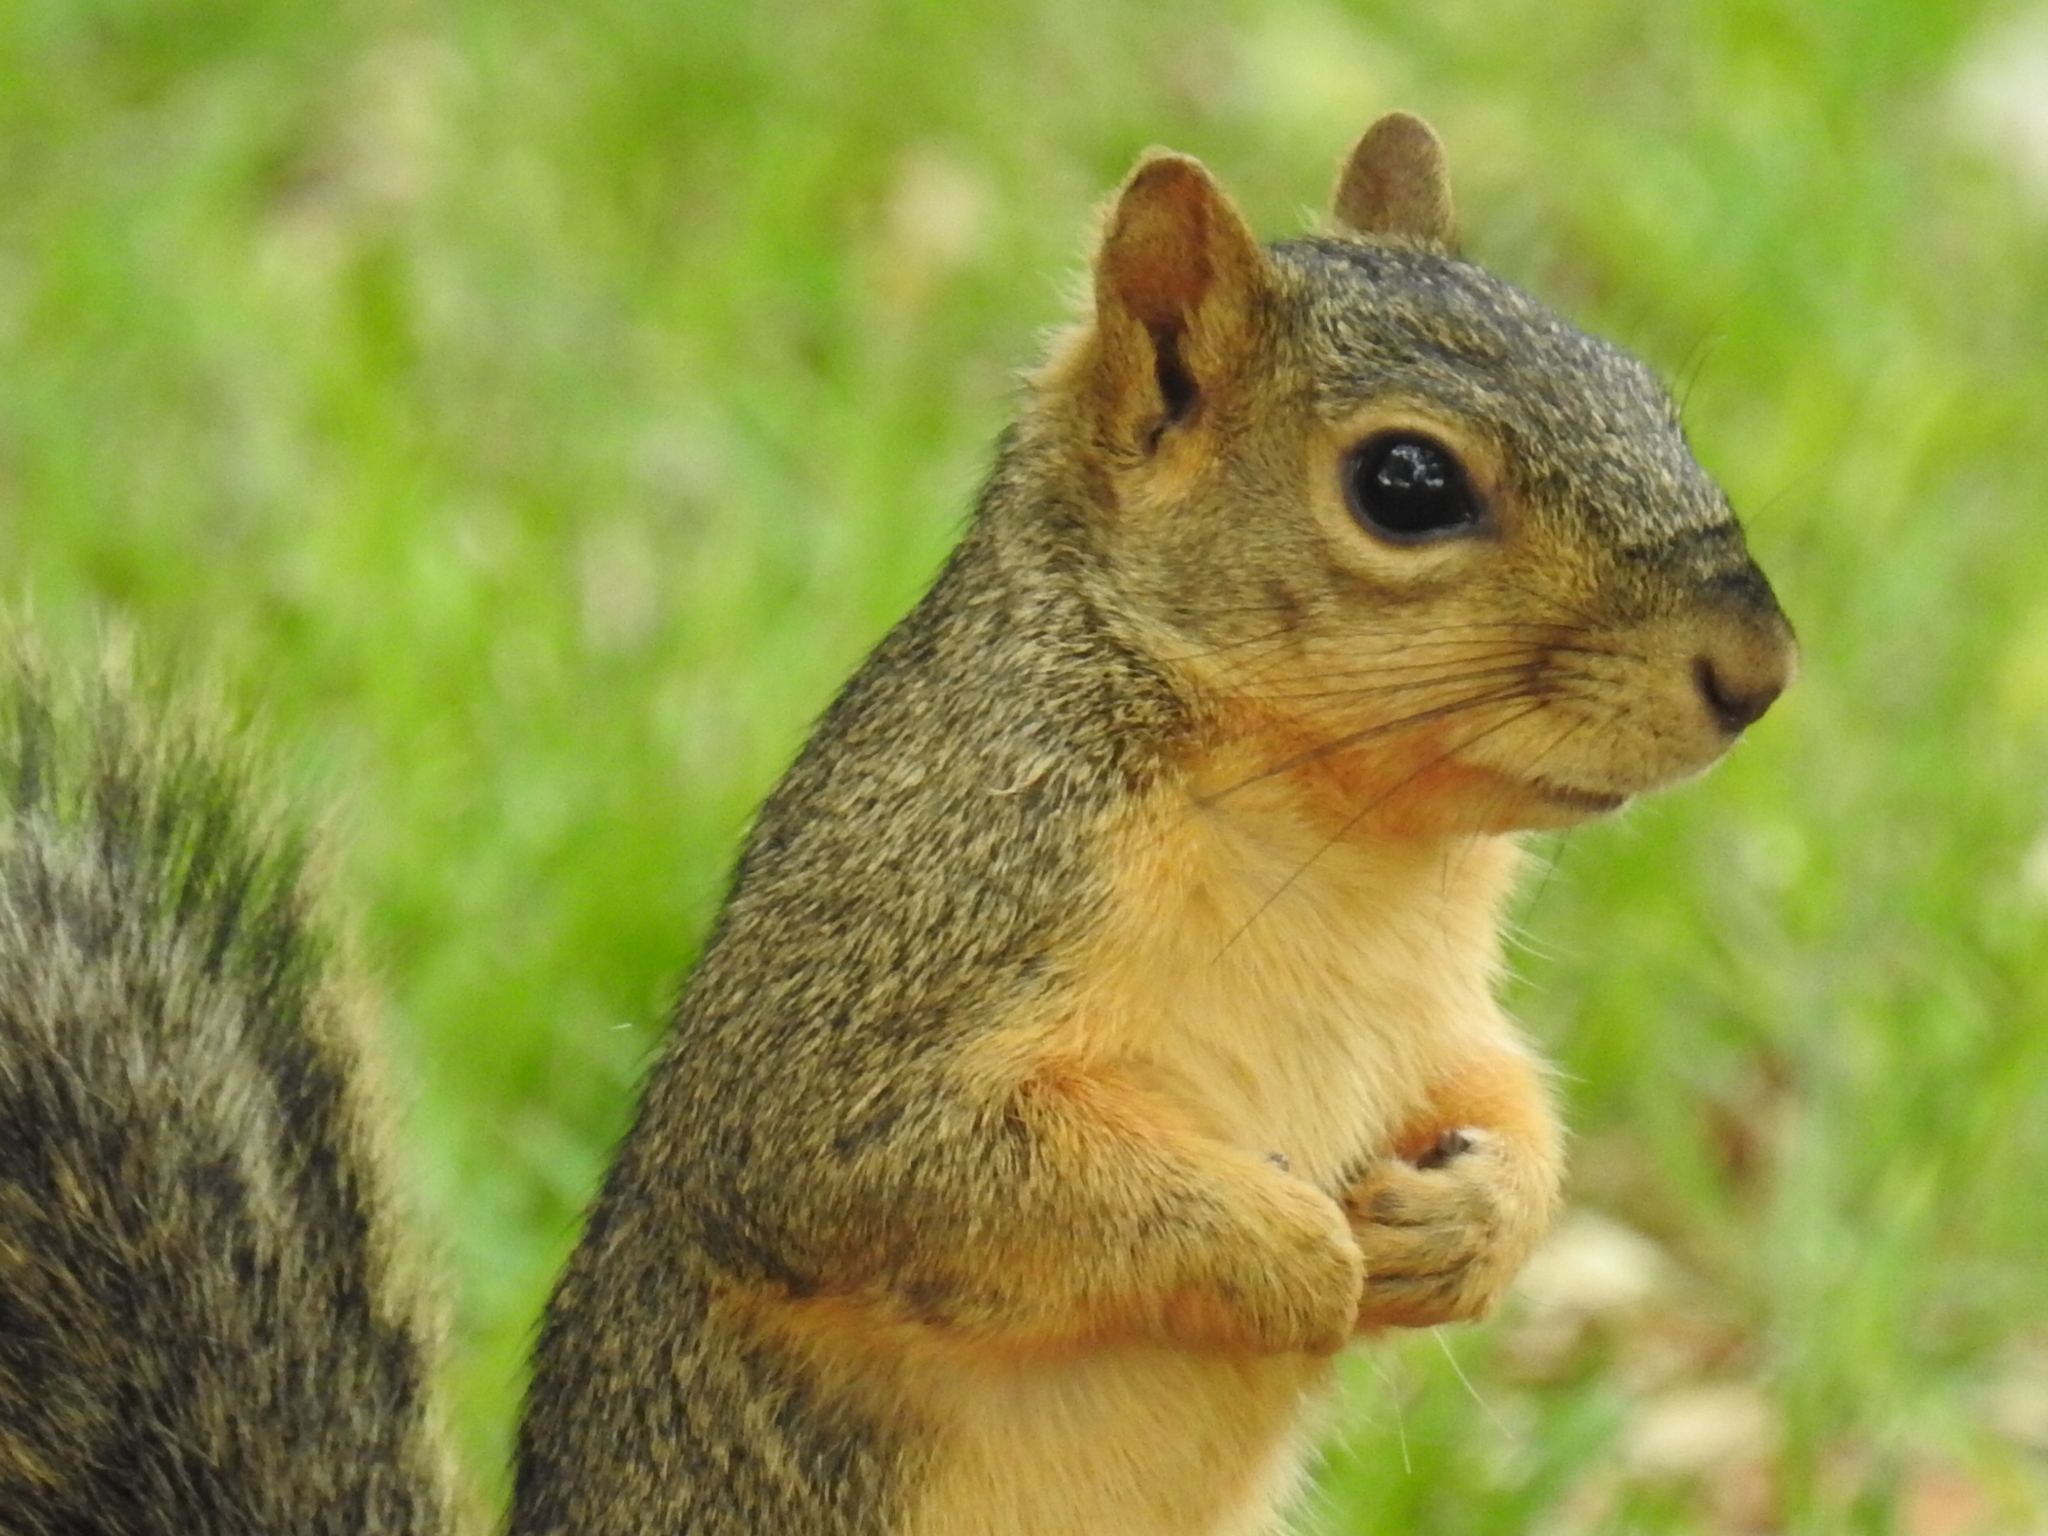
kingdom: Animalia
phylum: Chordata
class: Mammalia
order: Rodentia
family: Sciuridae
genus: Sciurus
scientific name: Sciurus niger
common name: Fox squirrel
